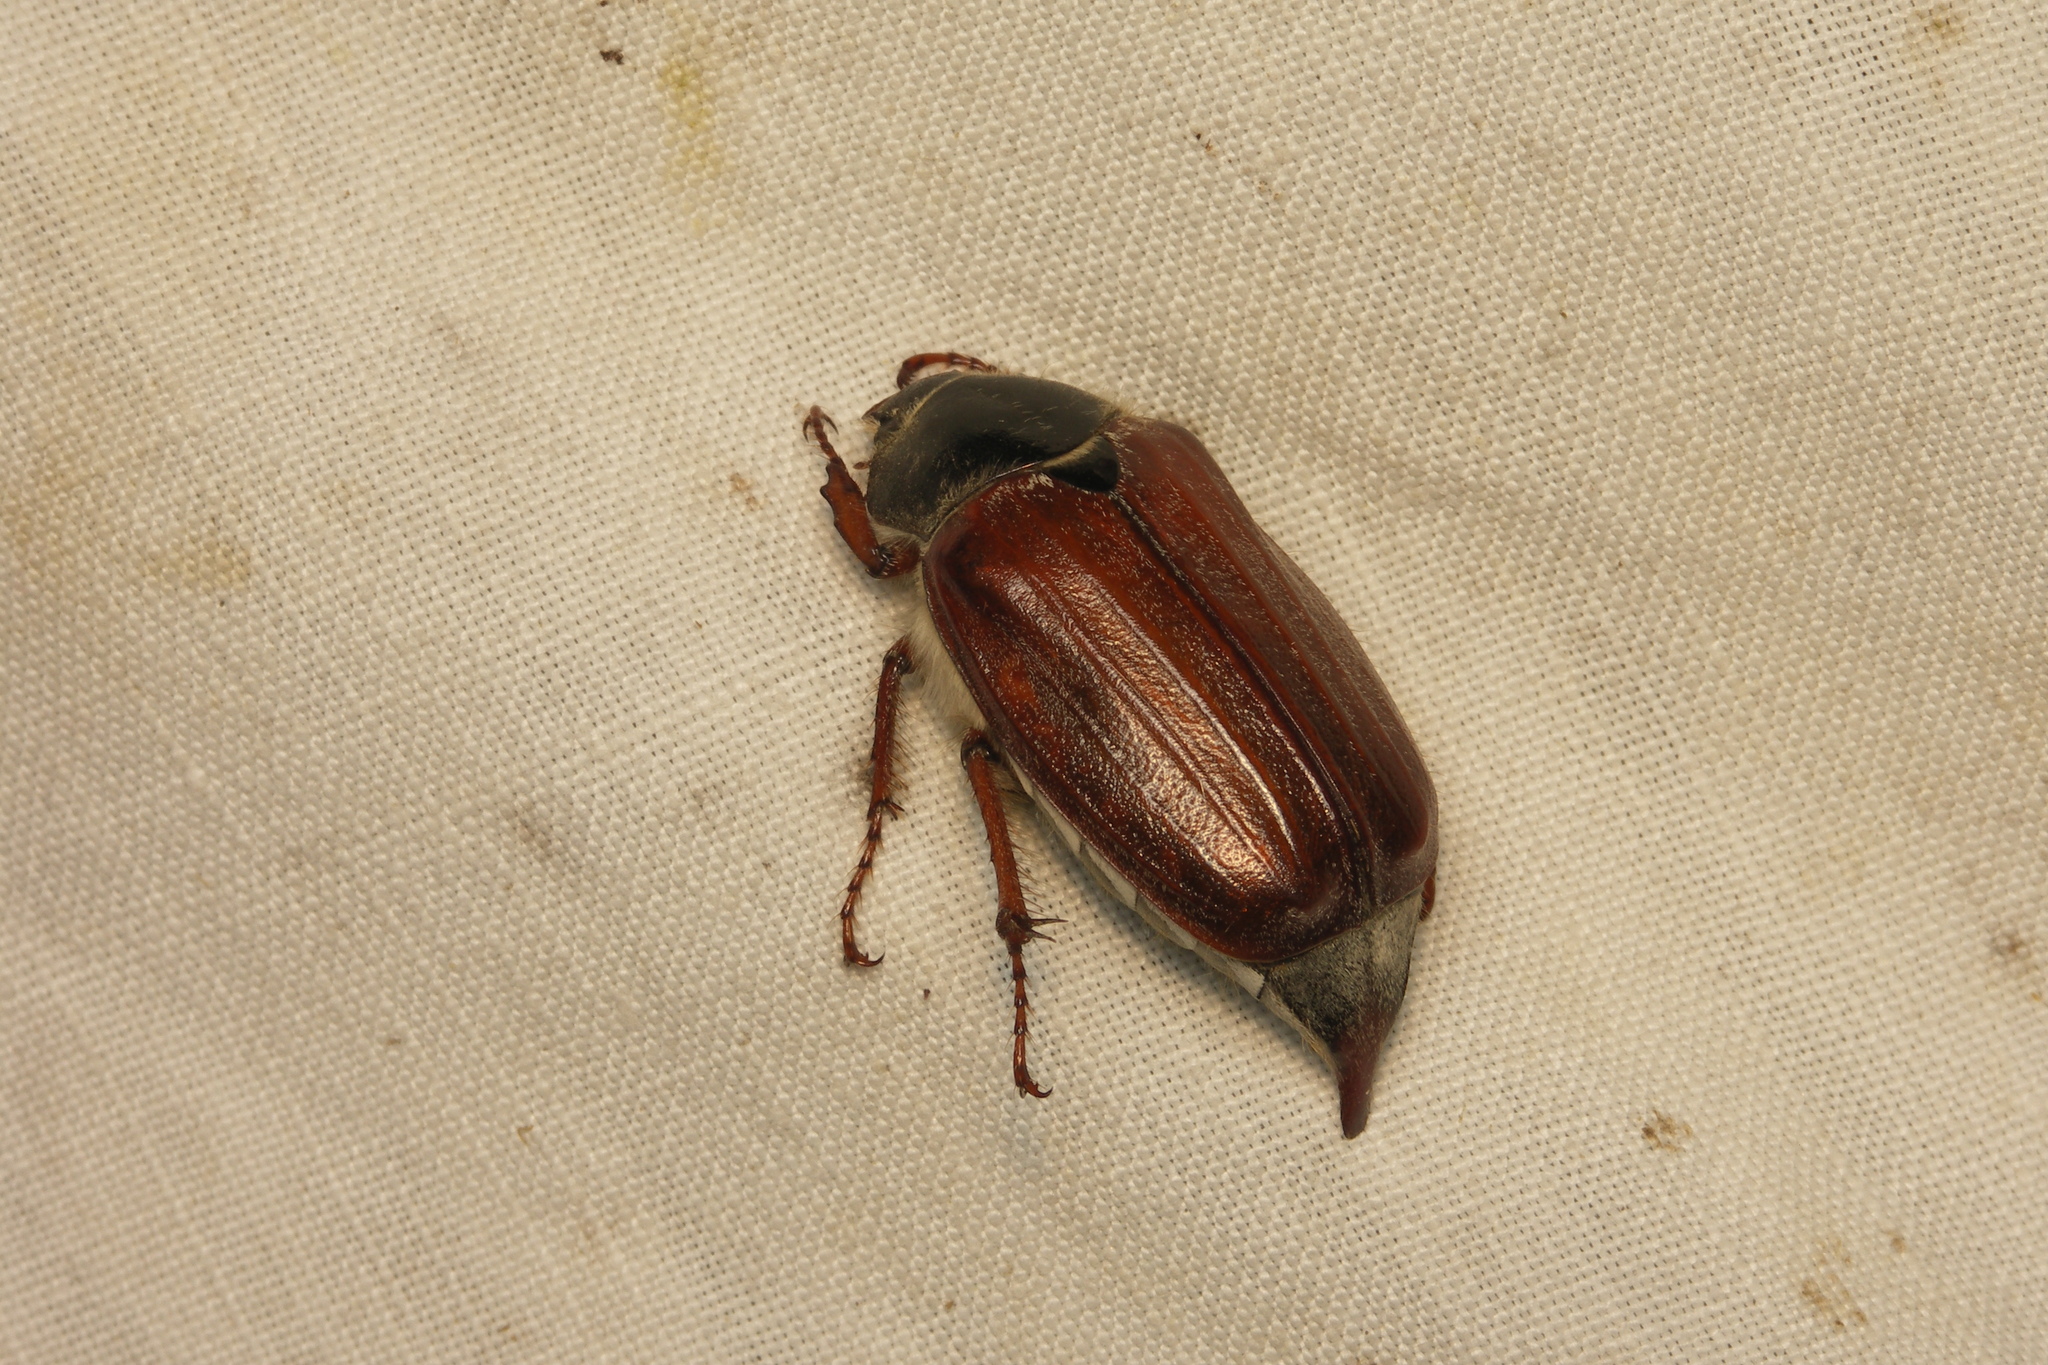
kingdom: Animalia
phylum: Arthropoda
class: Insecta
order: Coleoptera
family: Scarabaeidae
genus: Melolontha
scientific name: Melolontha melolontha
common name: Cockchafer maybeetle
